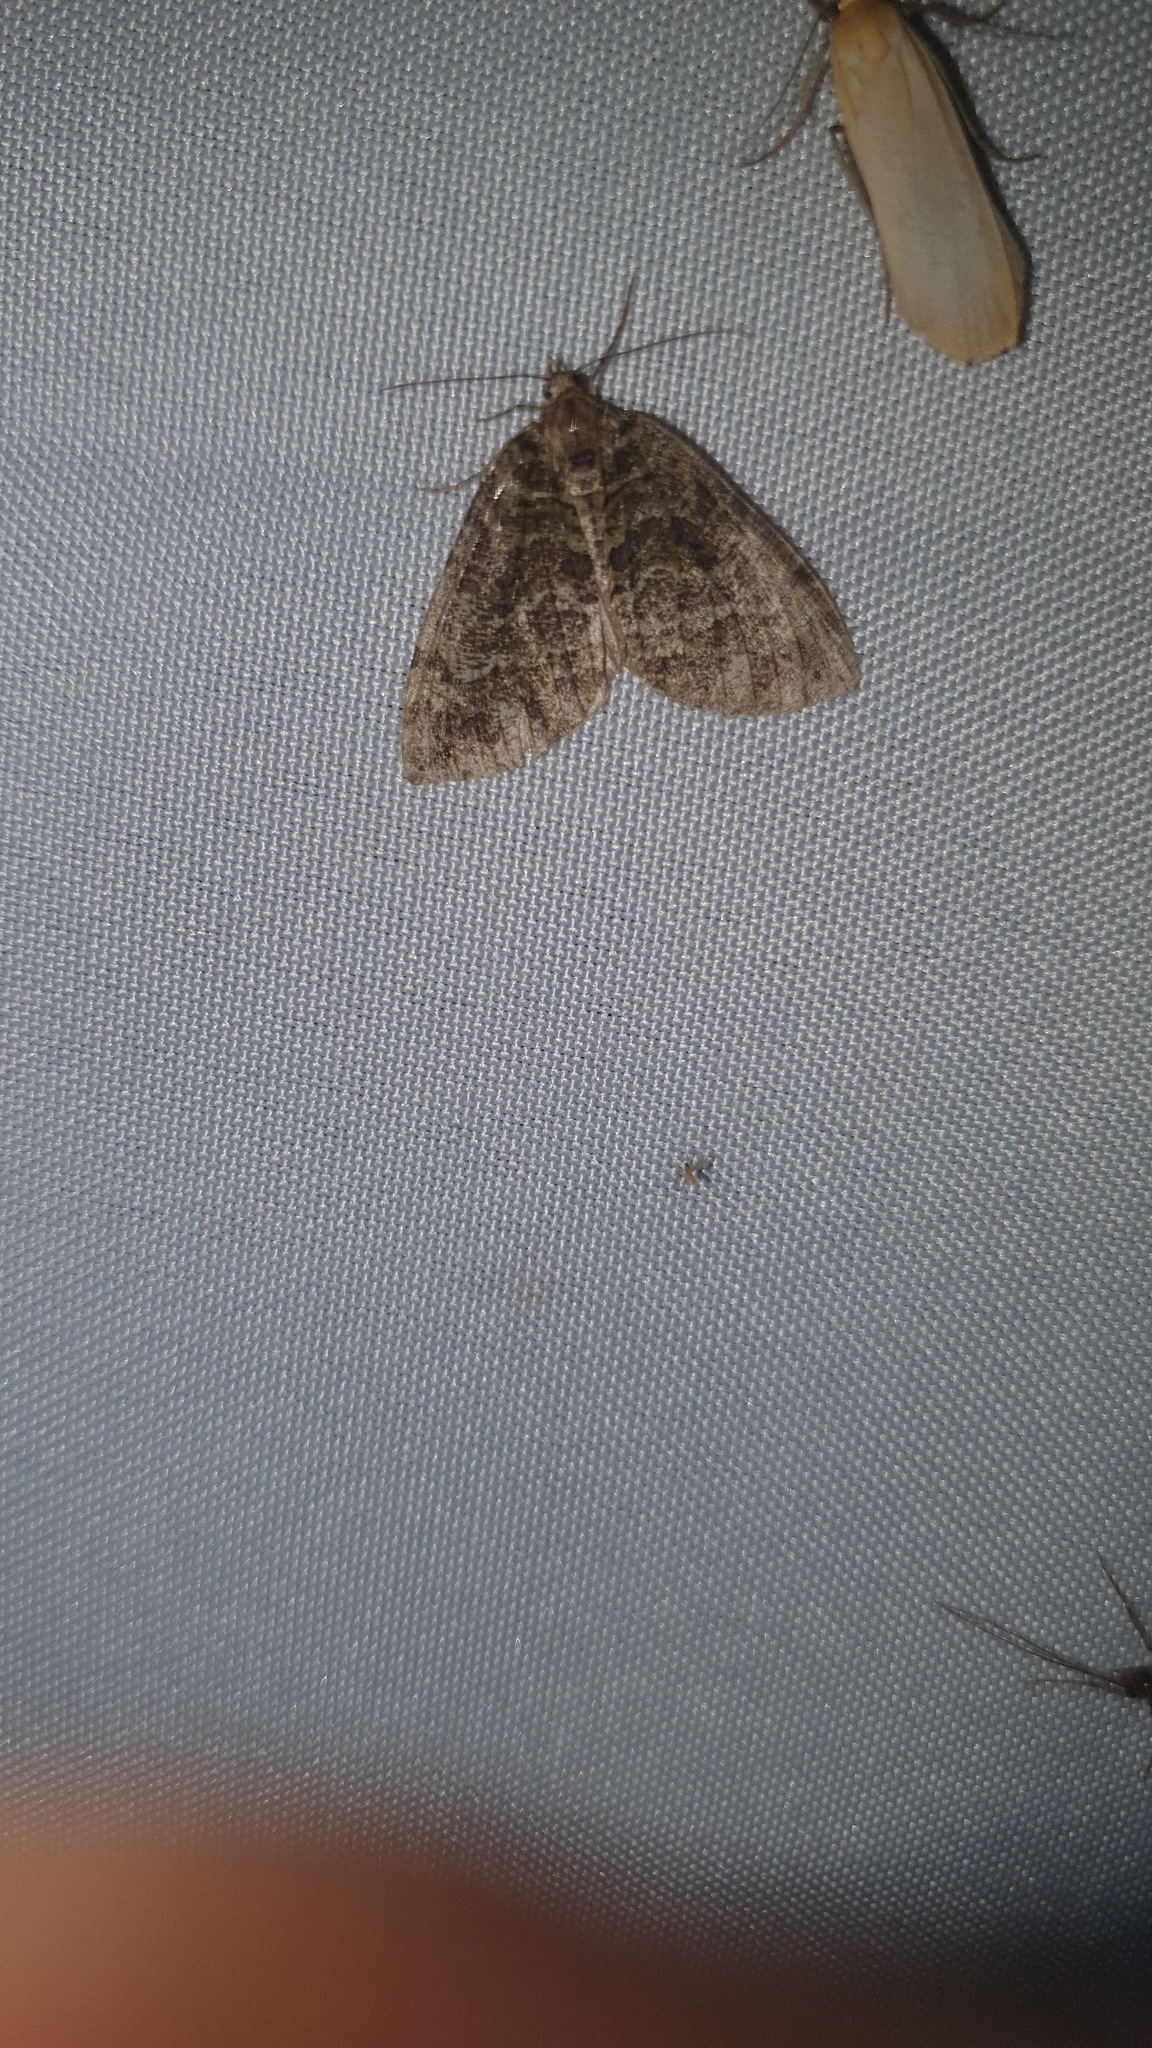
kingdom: Animalia
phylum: Arthropoda
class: Insecta
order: Lepidoptera
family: Geometridae
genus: Hydriomena
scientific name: Hydriomena furcata
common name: July highflyer
